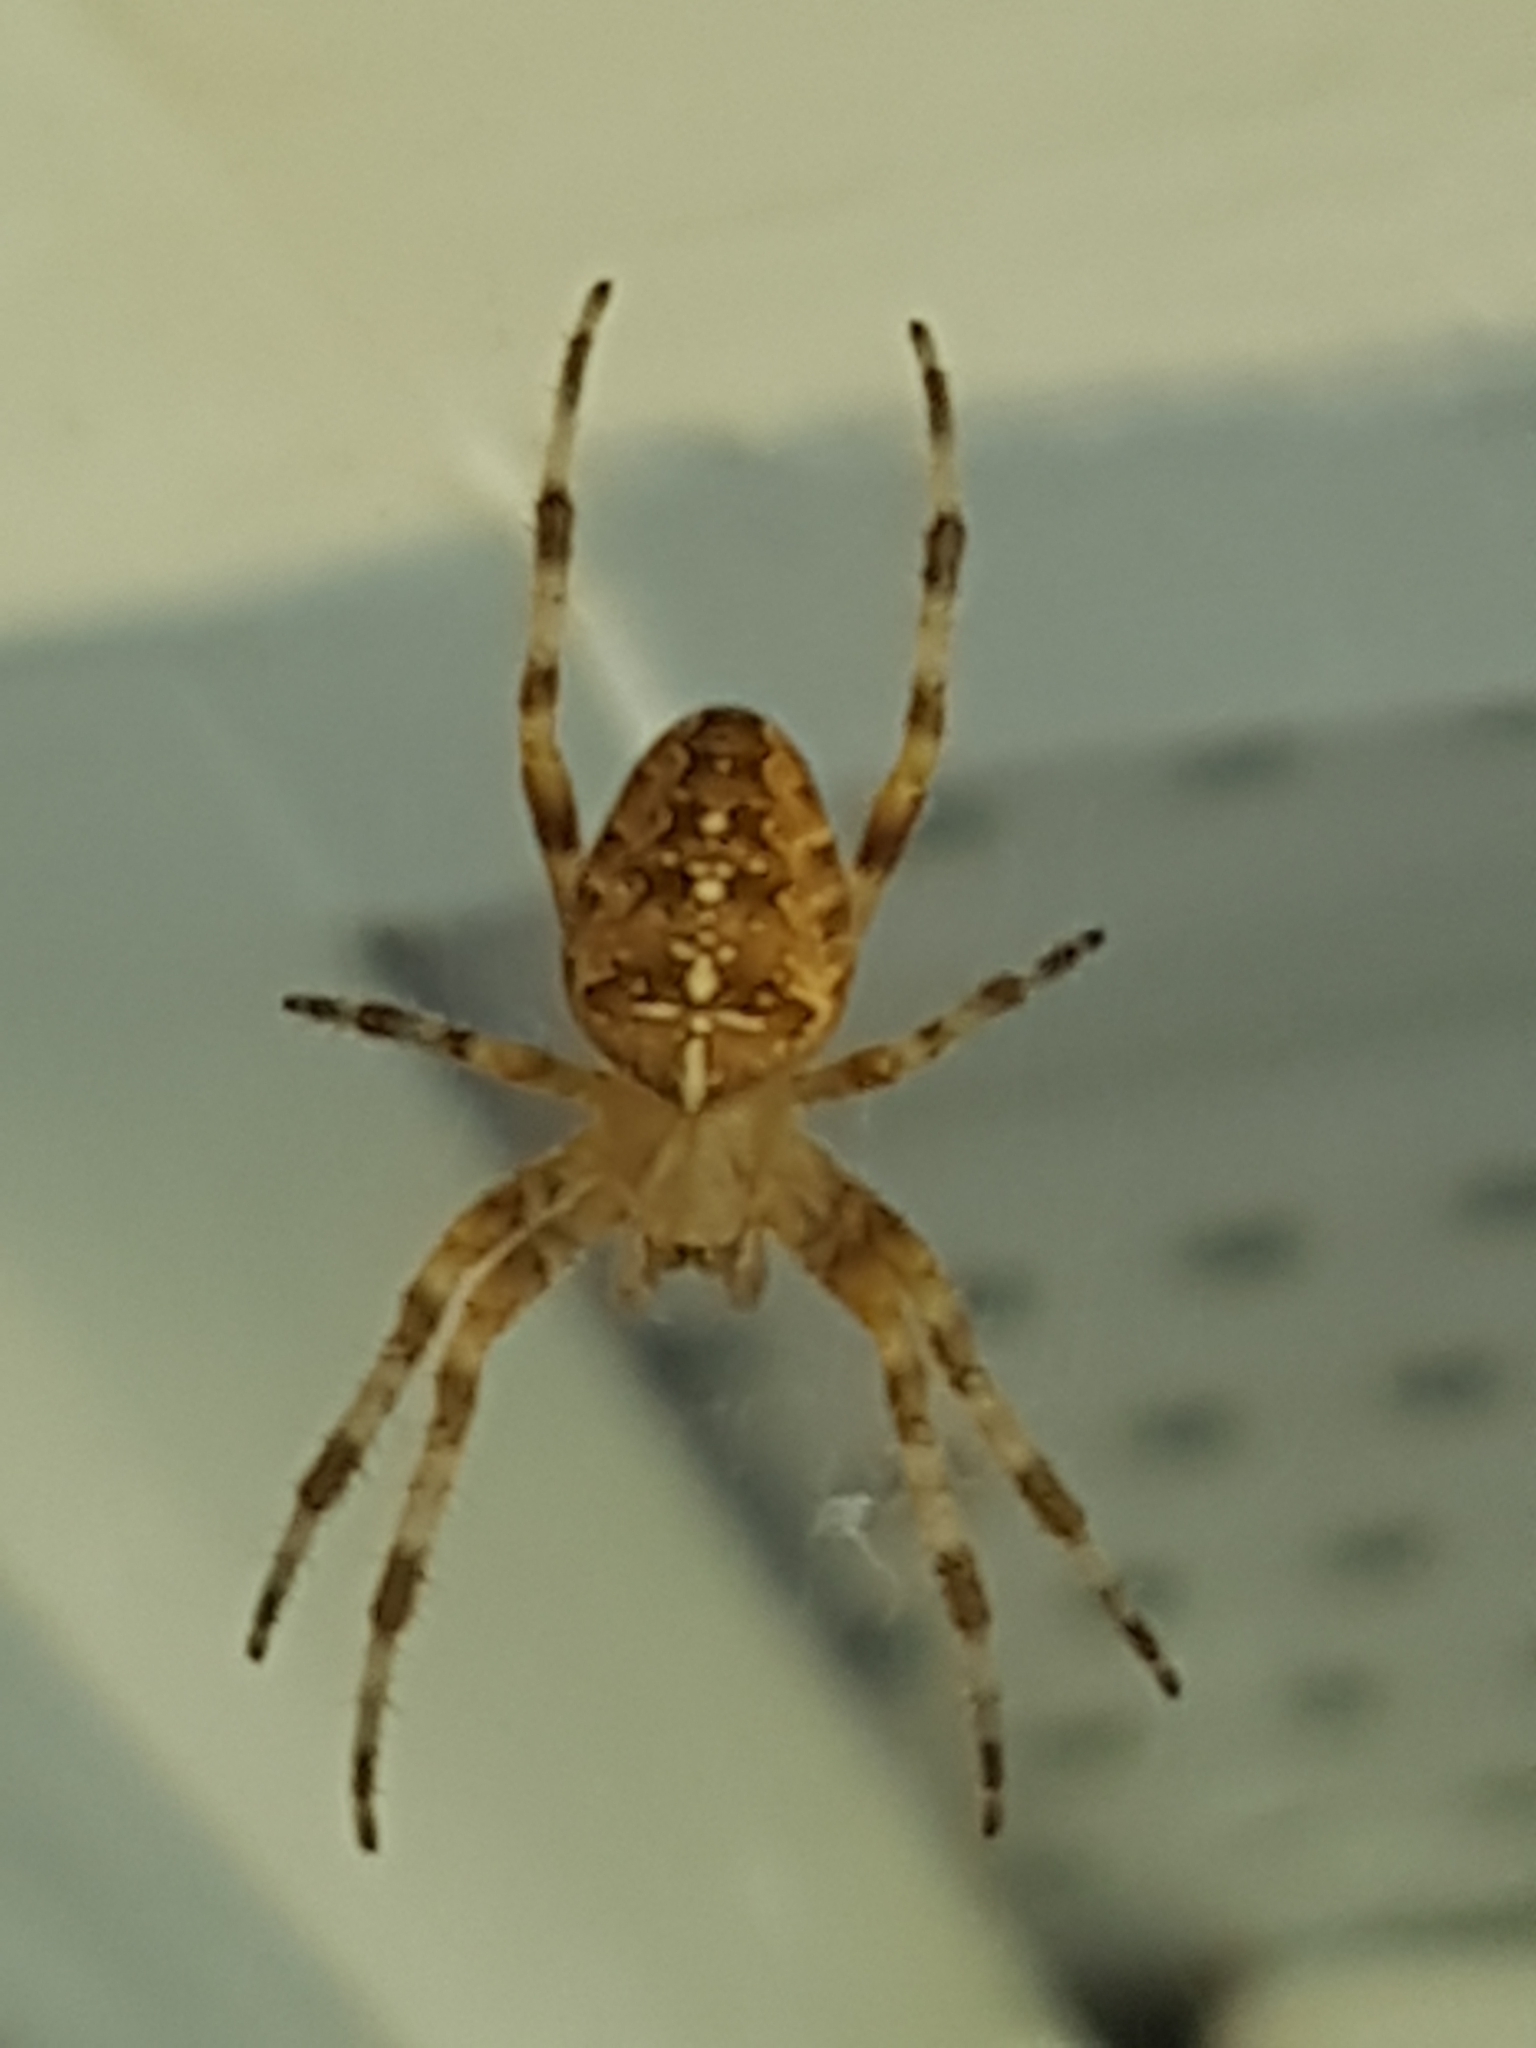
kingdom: Animalia
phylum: Arthropoda
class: Arachnida
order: Araneae
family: Araneidae
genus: Araneus
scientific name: Araneus diadematus
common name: Cross orbweaver
